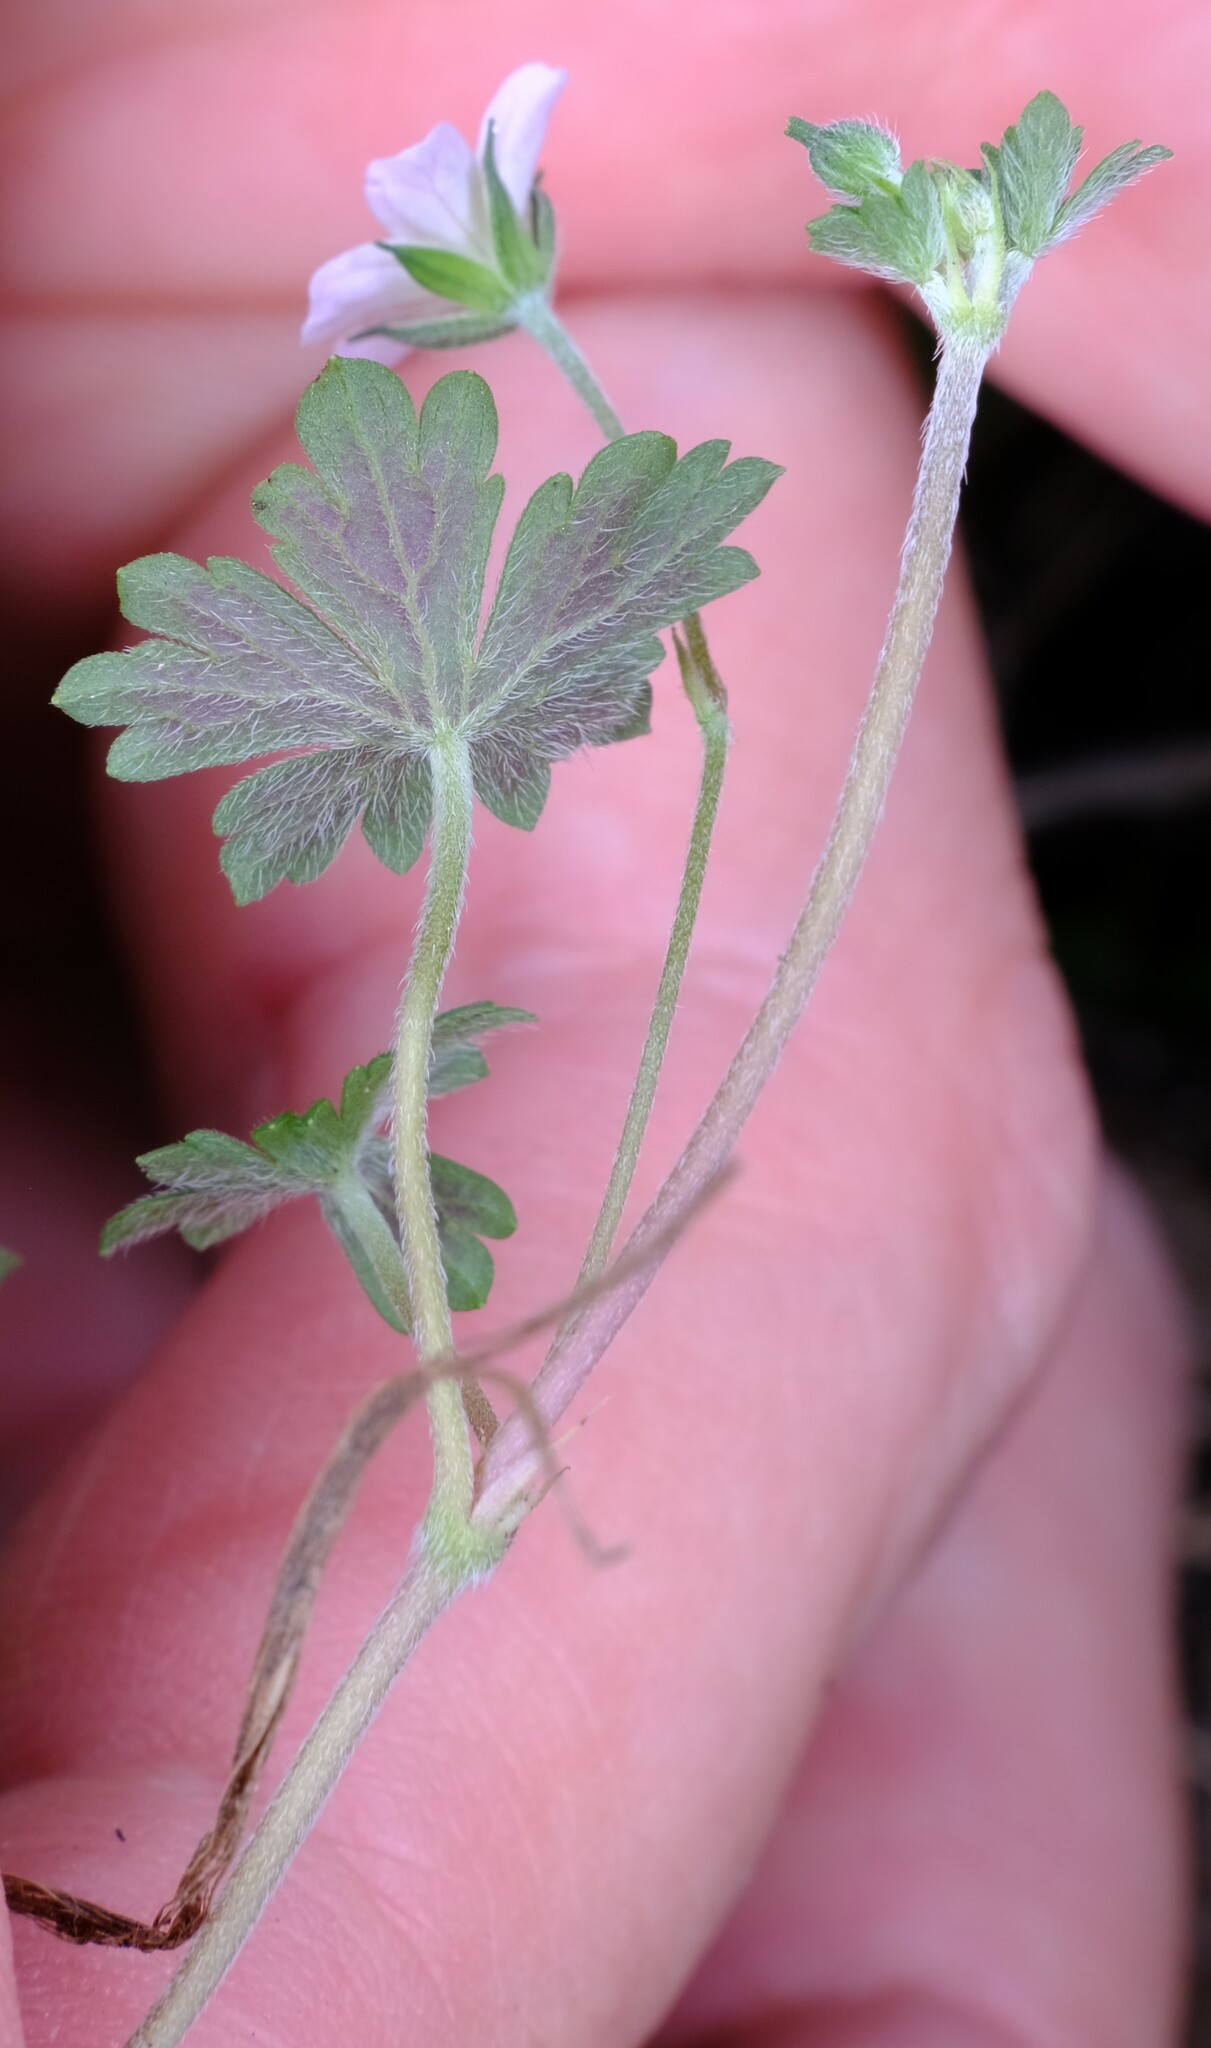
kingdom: Plantae
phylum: Tracheophyta
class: Magnoliopsida
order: Geraniales
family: Geraniaceae
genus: Geranium
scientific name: Geranium potentilloides
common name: Cinquefoil geranium
